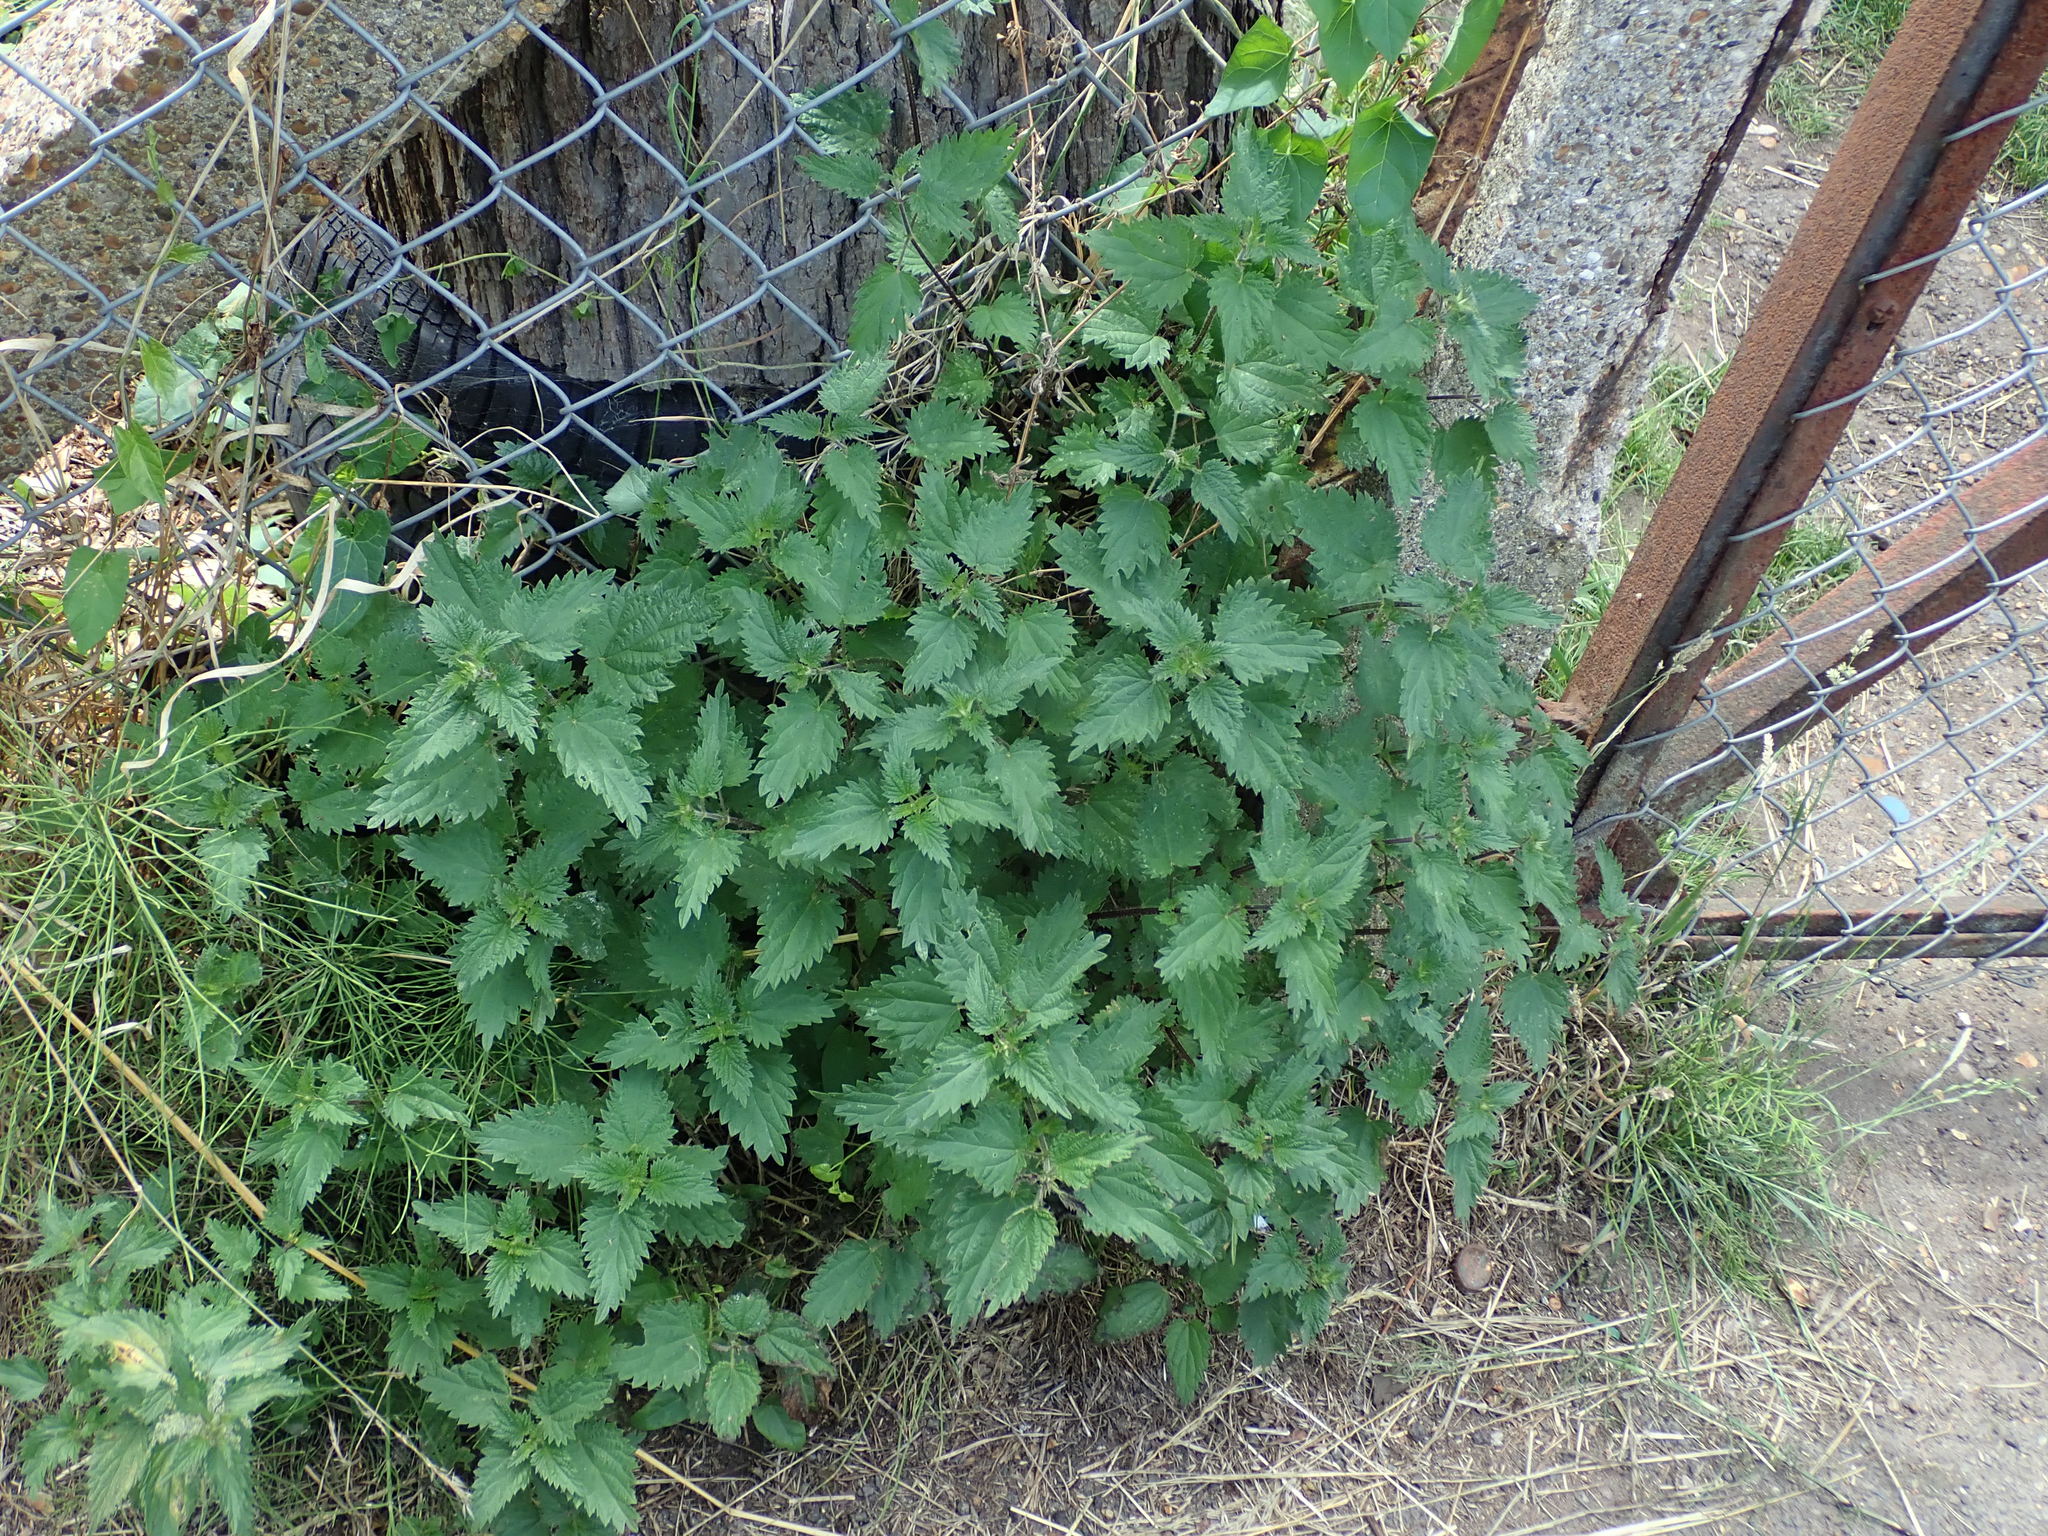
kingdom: Plantae
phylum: Tracheophyta
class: Magnoliopsida
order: Rosales
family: Urticaceae
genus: Urtica
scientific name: Urtica dioica
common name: Common nettle
